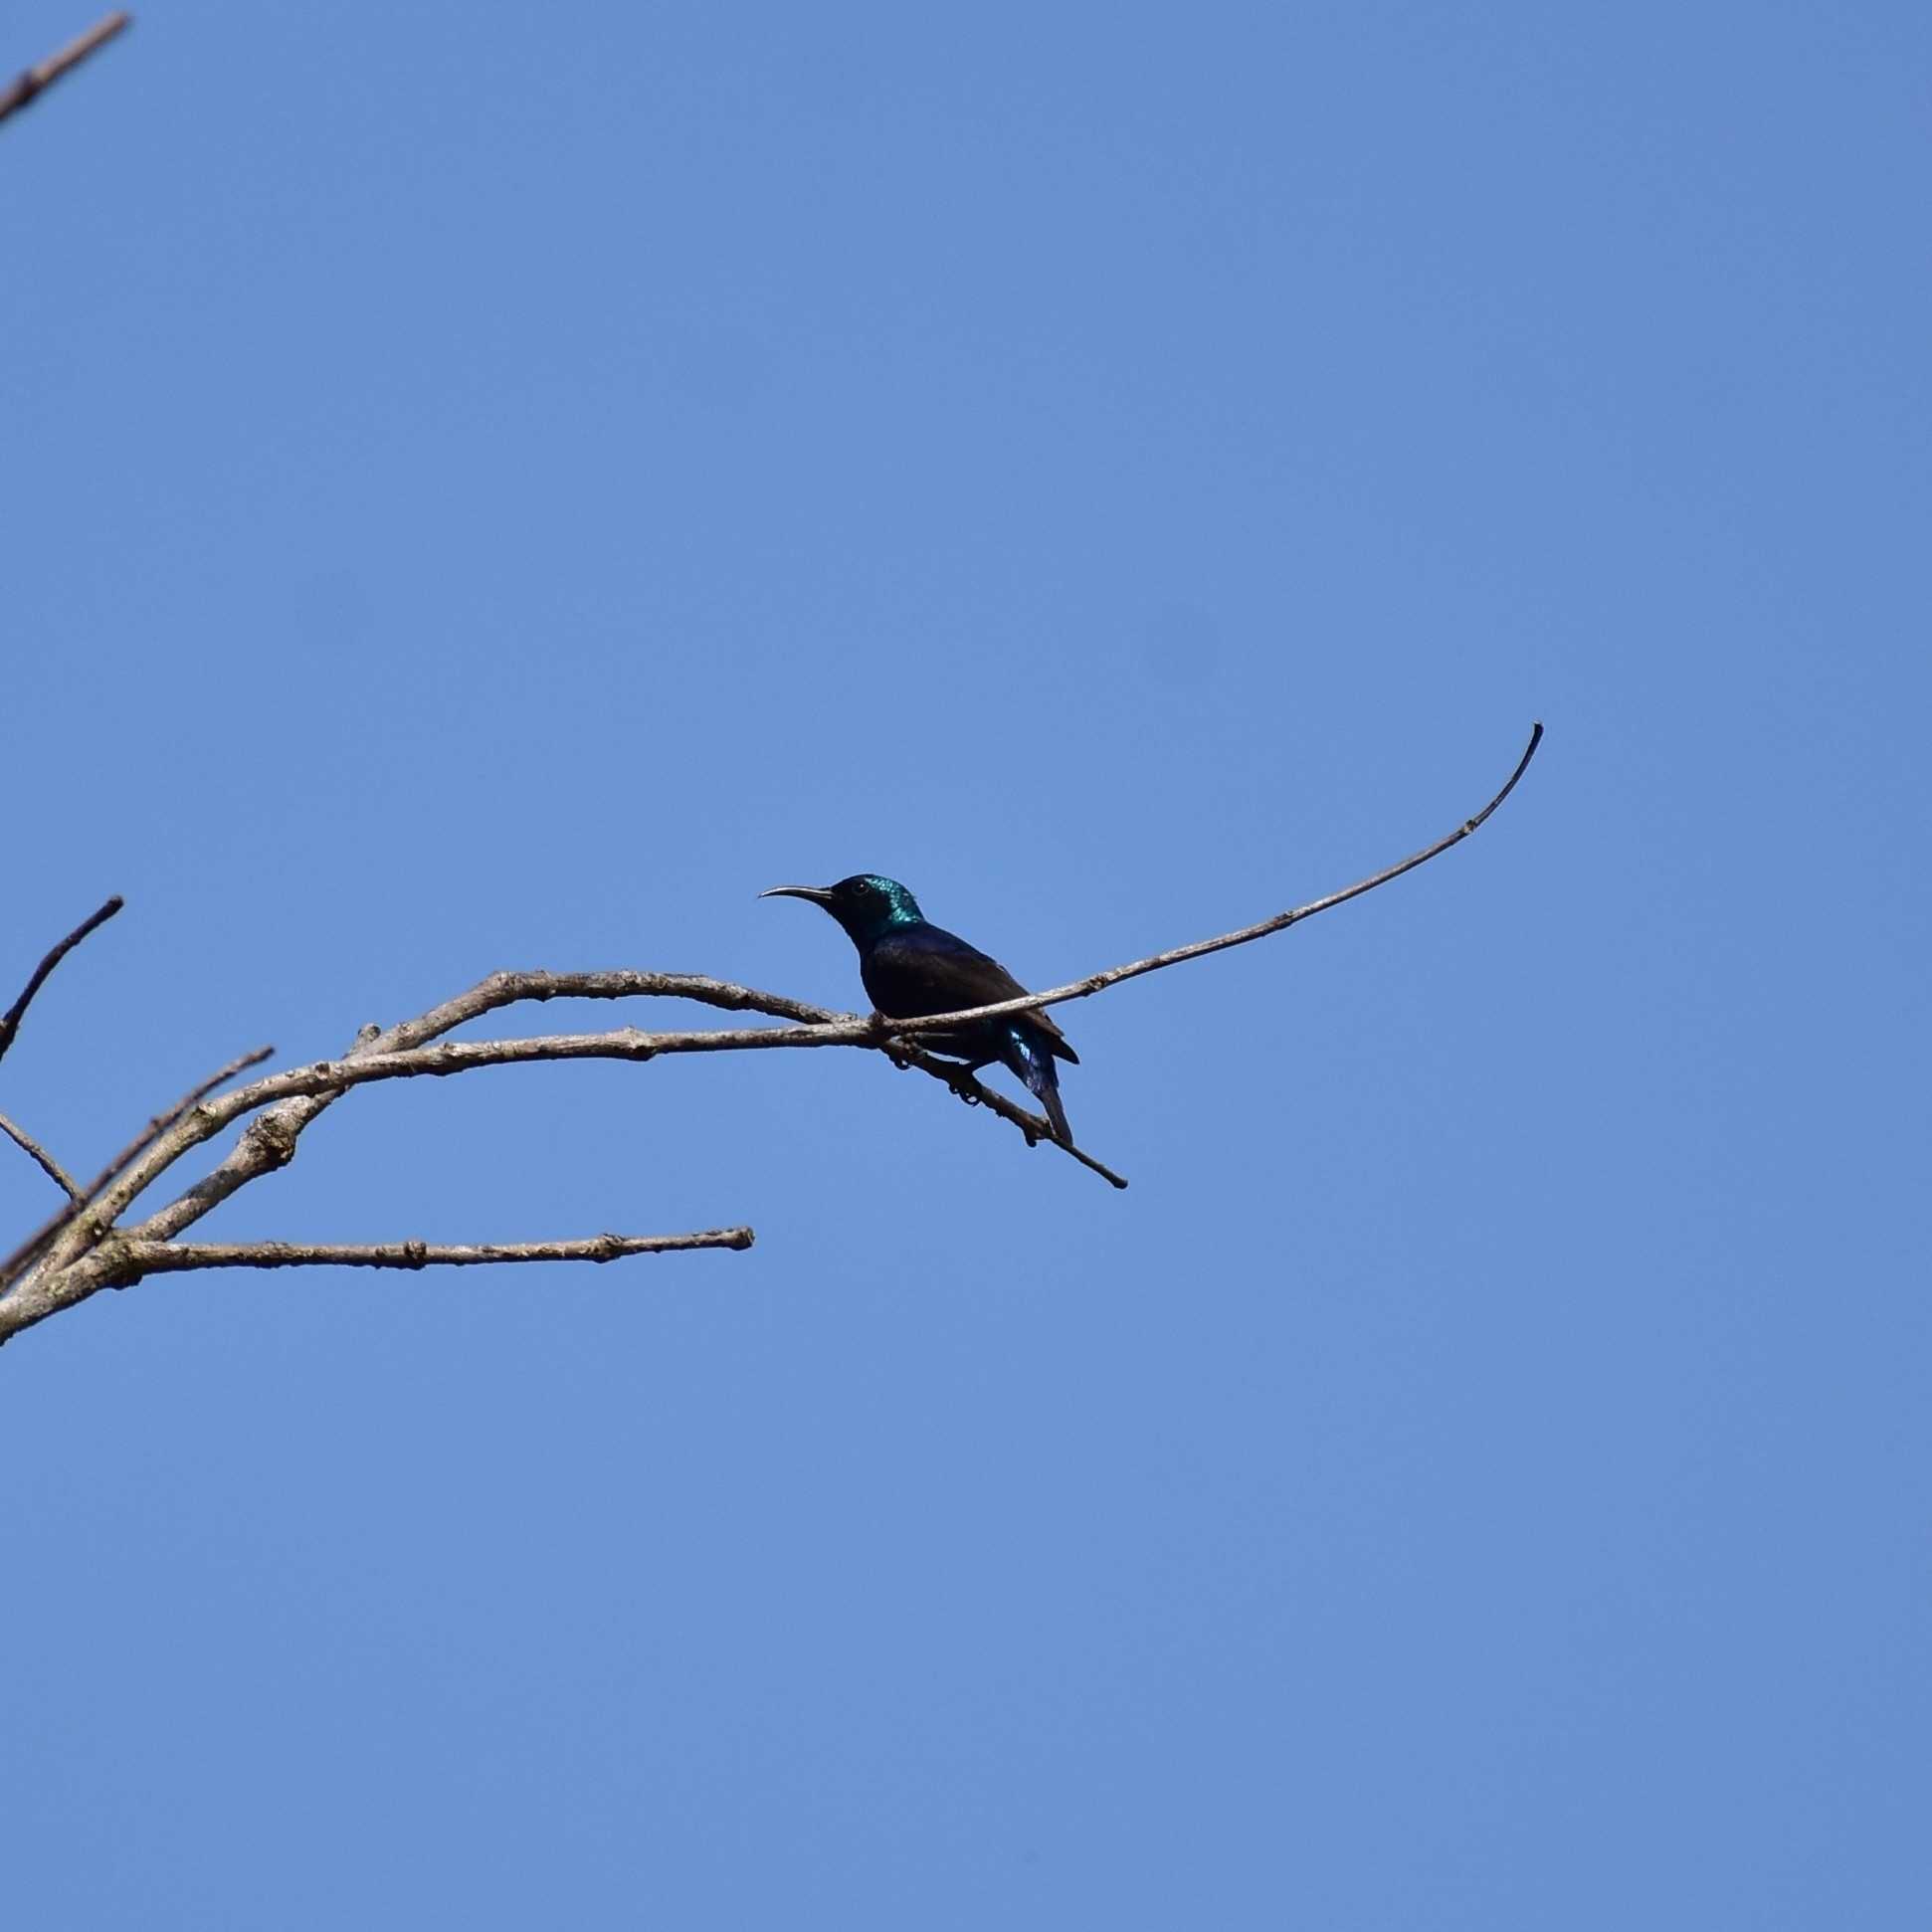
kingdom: Animalia
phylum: Chordata
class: Aves
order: Passeriformes
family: Nectariniidae
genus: Cinnyris
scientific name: Cinnyris asiaticus
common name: Purple sunbird
